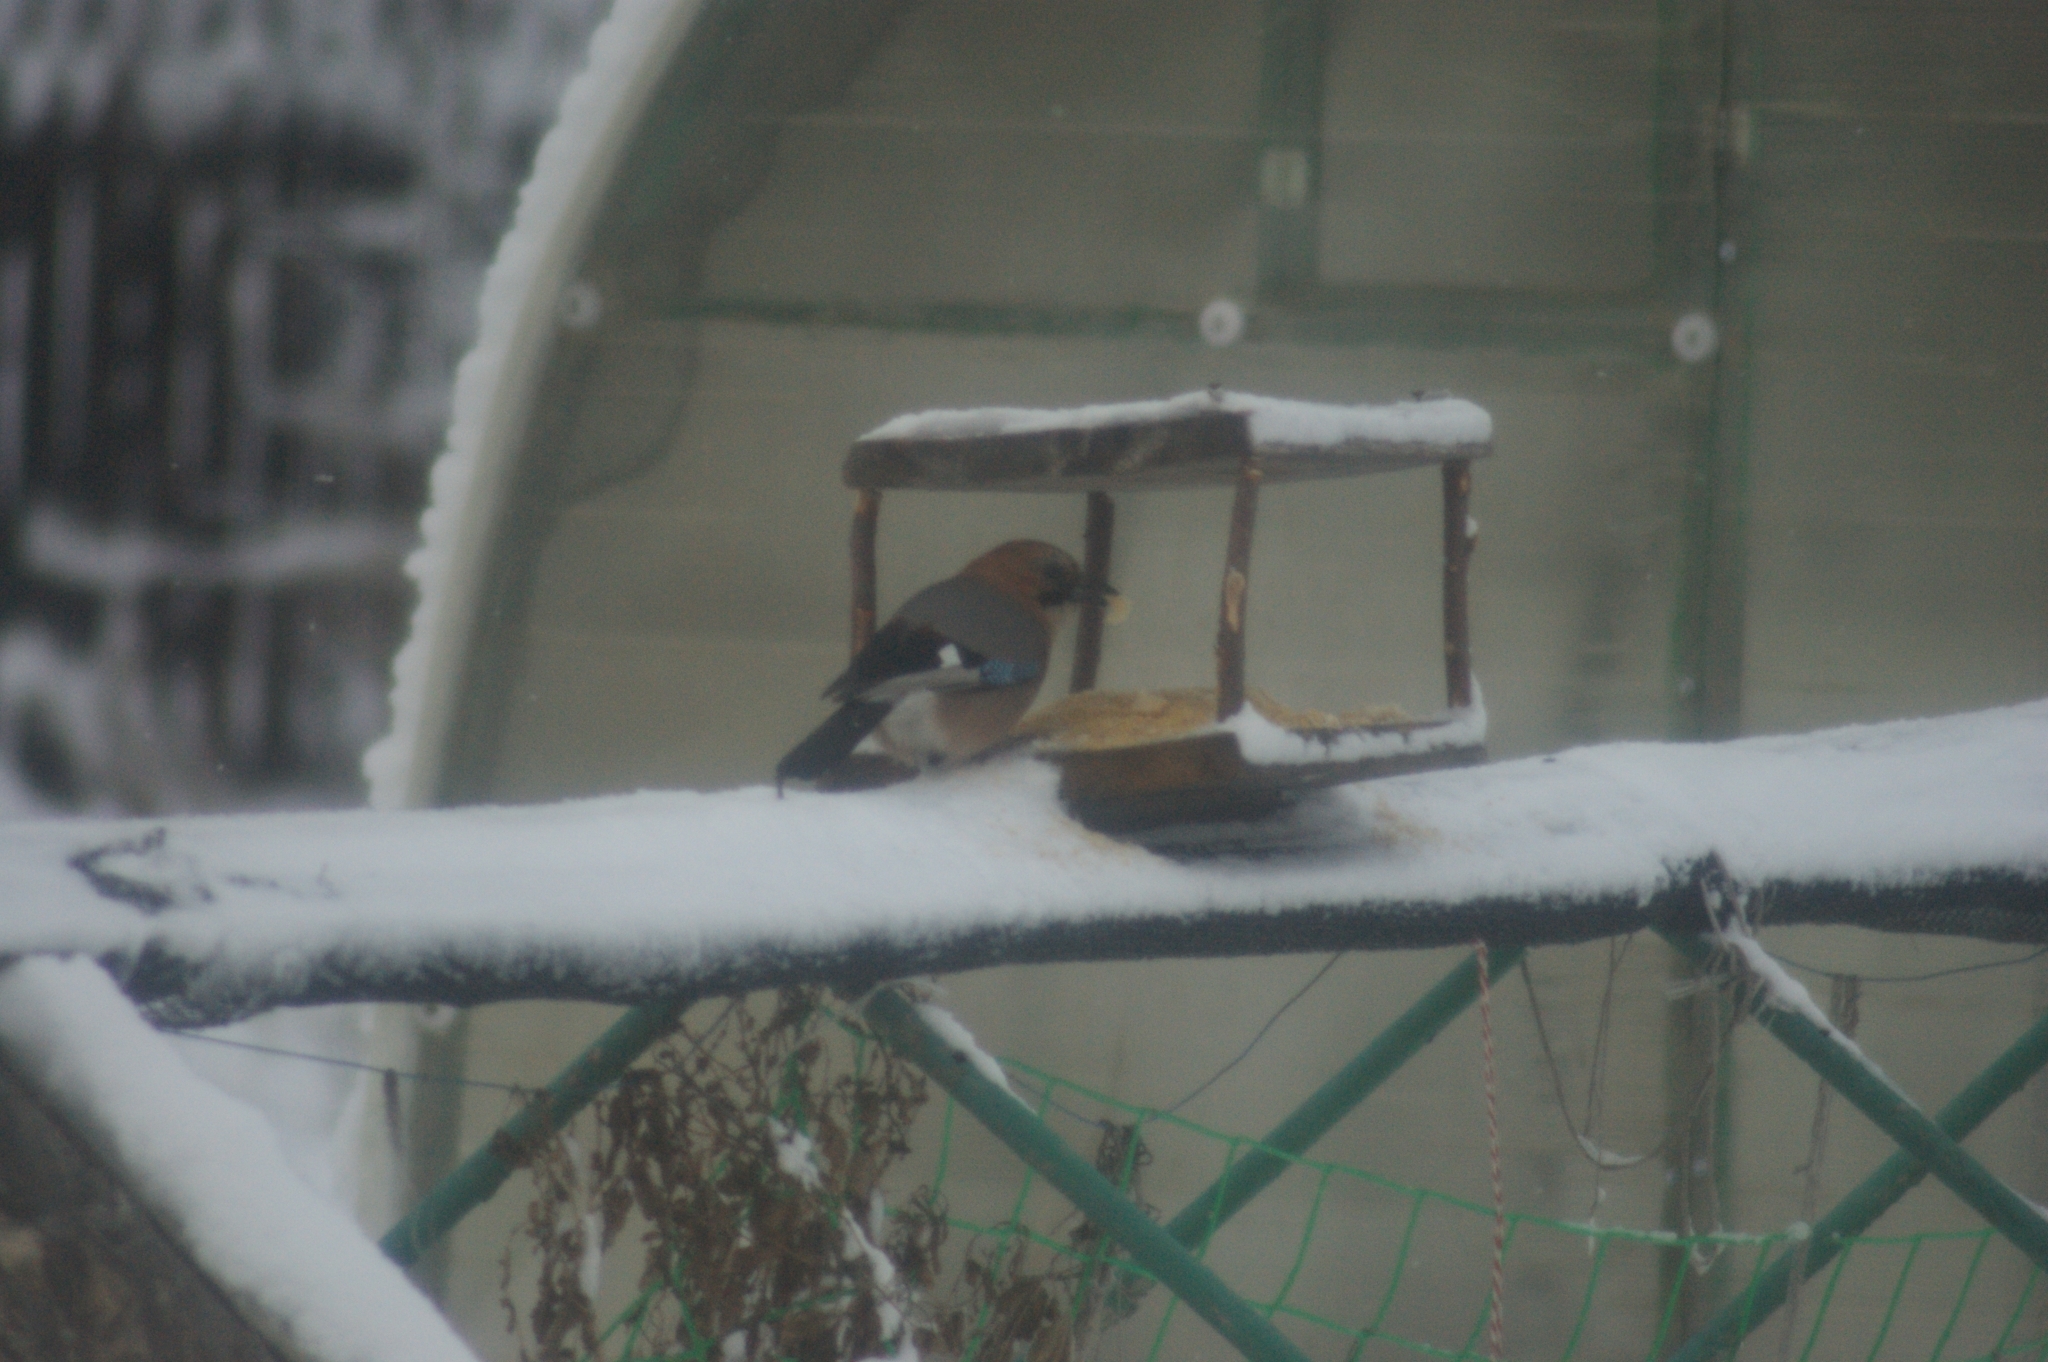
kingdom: Animalia
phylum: Chordata
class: Aves
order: Passeriformes
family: Corvidae
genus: Garrulus
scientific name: Garrulus glandarius
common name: Eurasian jay
